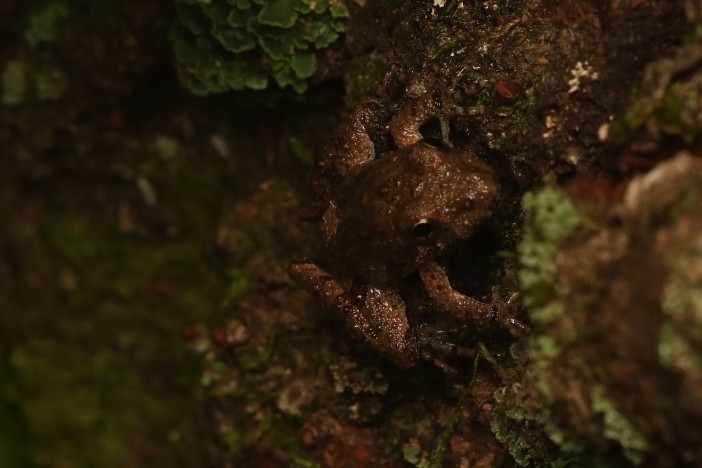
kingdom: Animalia
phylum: Chordata
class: Amphibia
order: Anura
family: Hylidae
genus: Acris
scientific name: Acris crepitans
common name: Northern cricket frog
